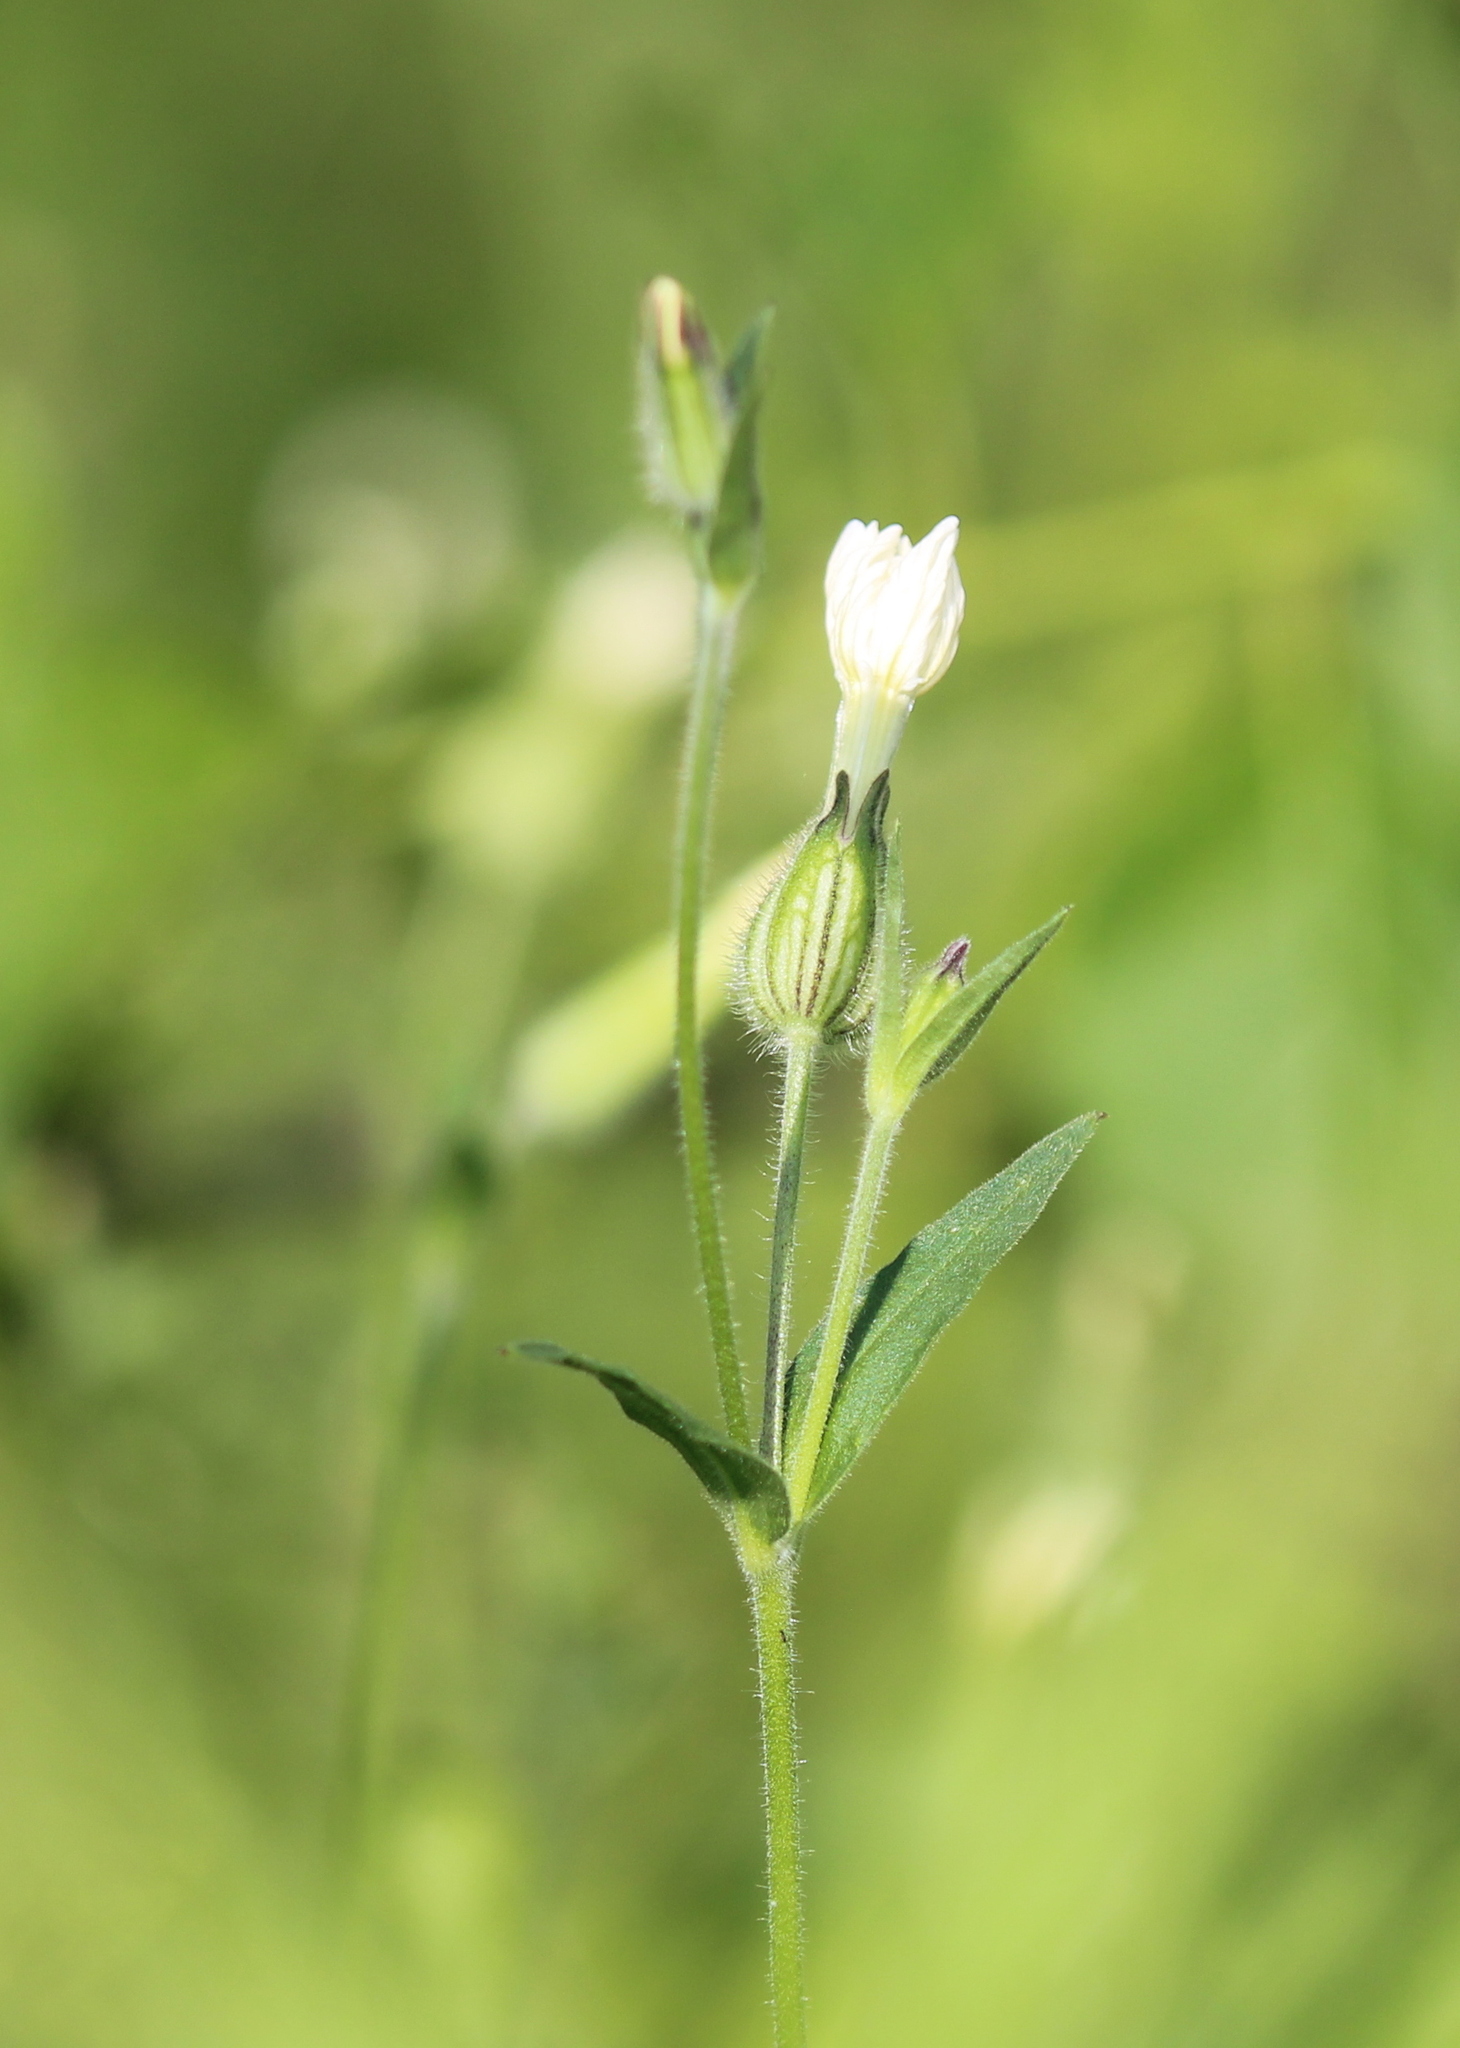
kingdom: Plantae
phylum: Tracheophyta
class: Magnoliopsida
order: Caryophyllales
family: Caryophyllaceae
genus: Silene
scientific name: Silene latifolia
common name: White campion
